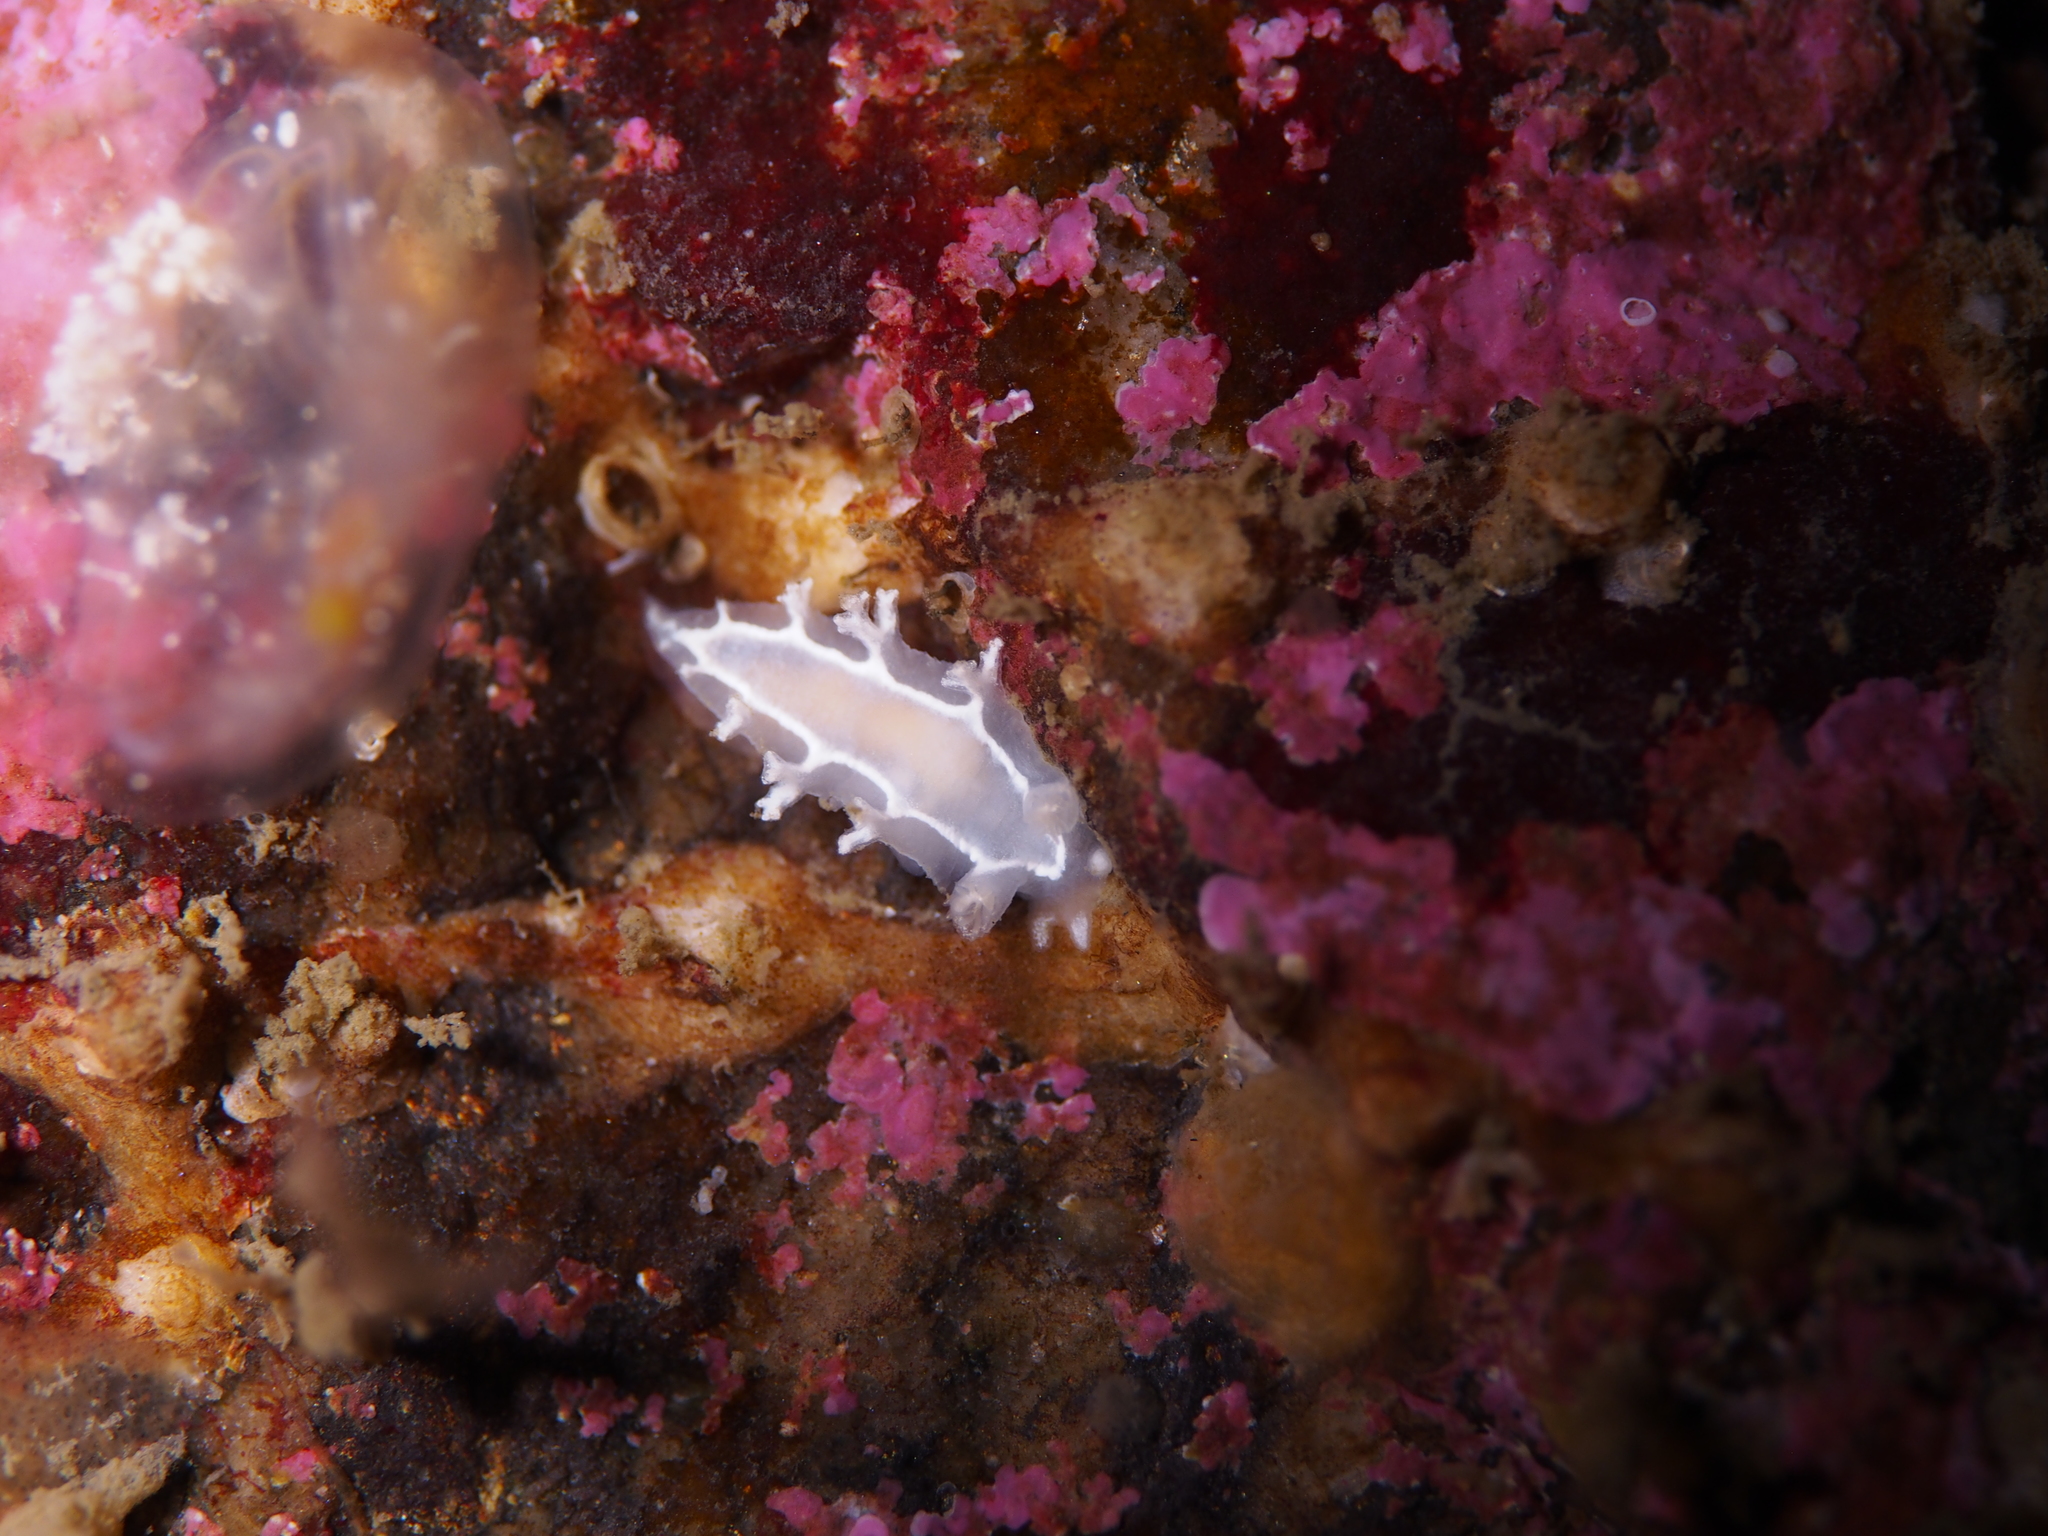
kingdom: Animalia
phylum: Mollusca
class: Gastropoda
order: Nudibranchia
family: Tritoniidae
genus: Duvaucelia
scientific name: Duvaucelia lineata
